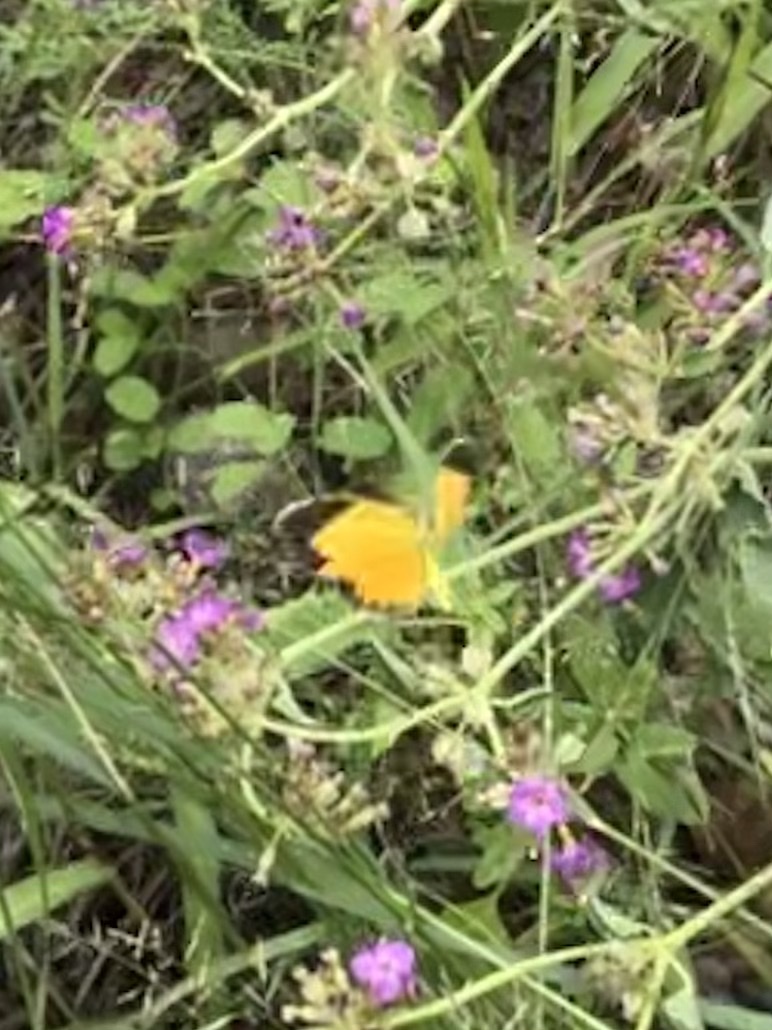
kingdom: Animalia
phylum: Arthropoda
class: Insecta
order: Lepidoptera
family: Pieridae
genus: Abaeis
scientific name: Abaeis nicippe
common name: Sleepy orange
